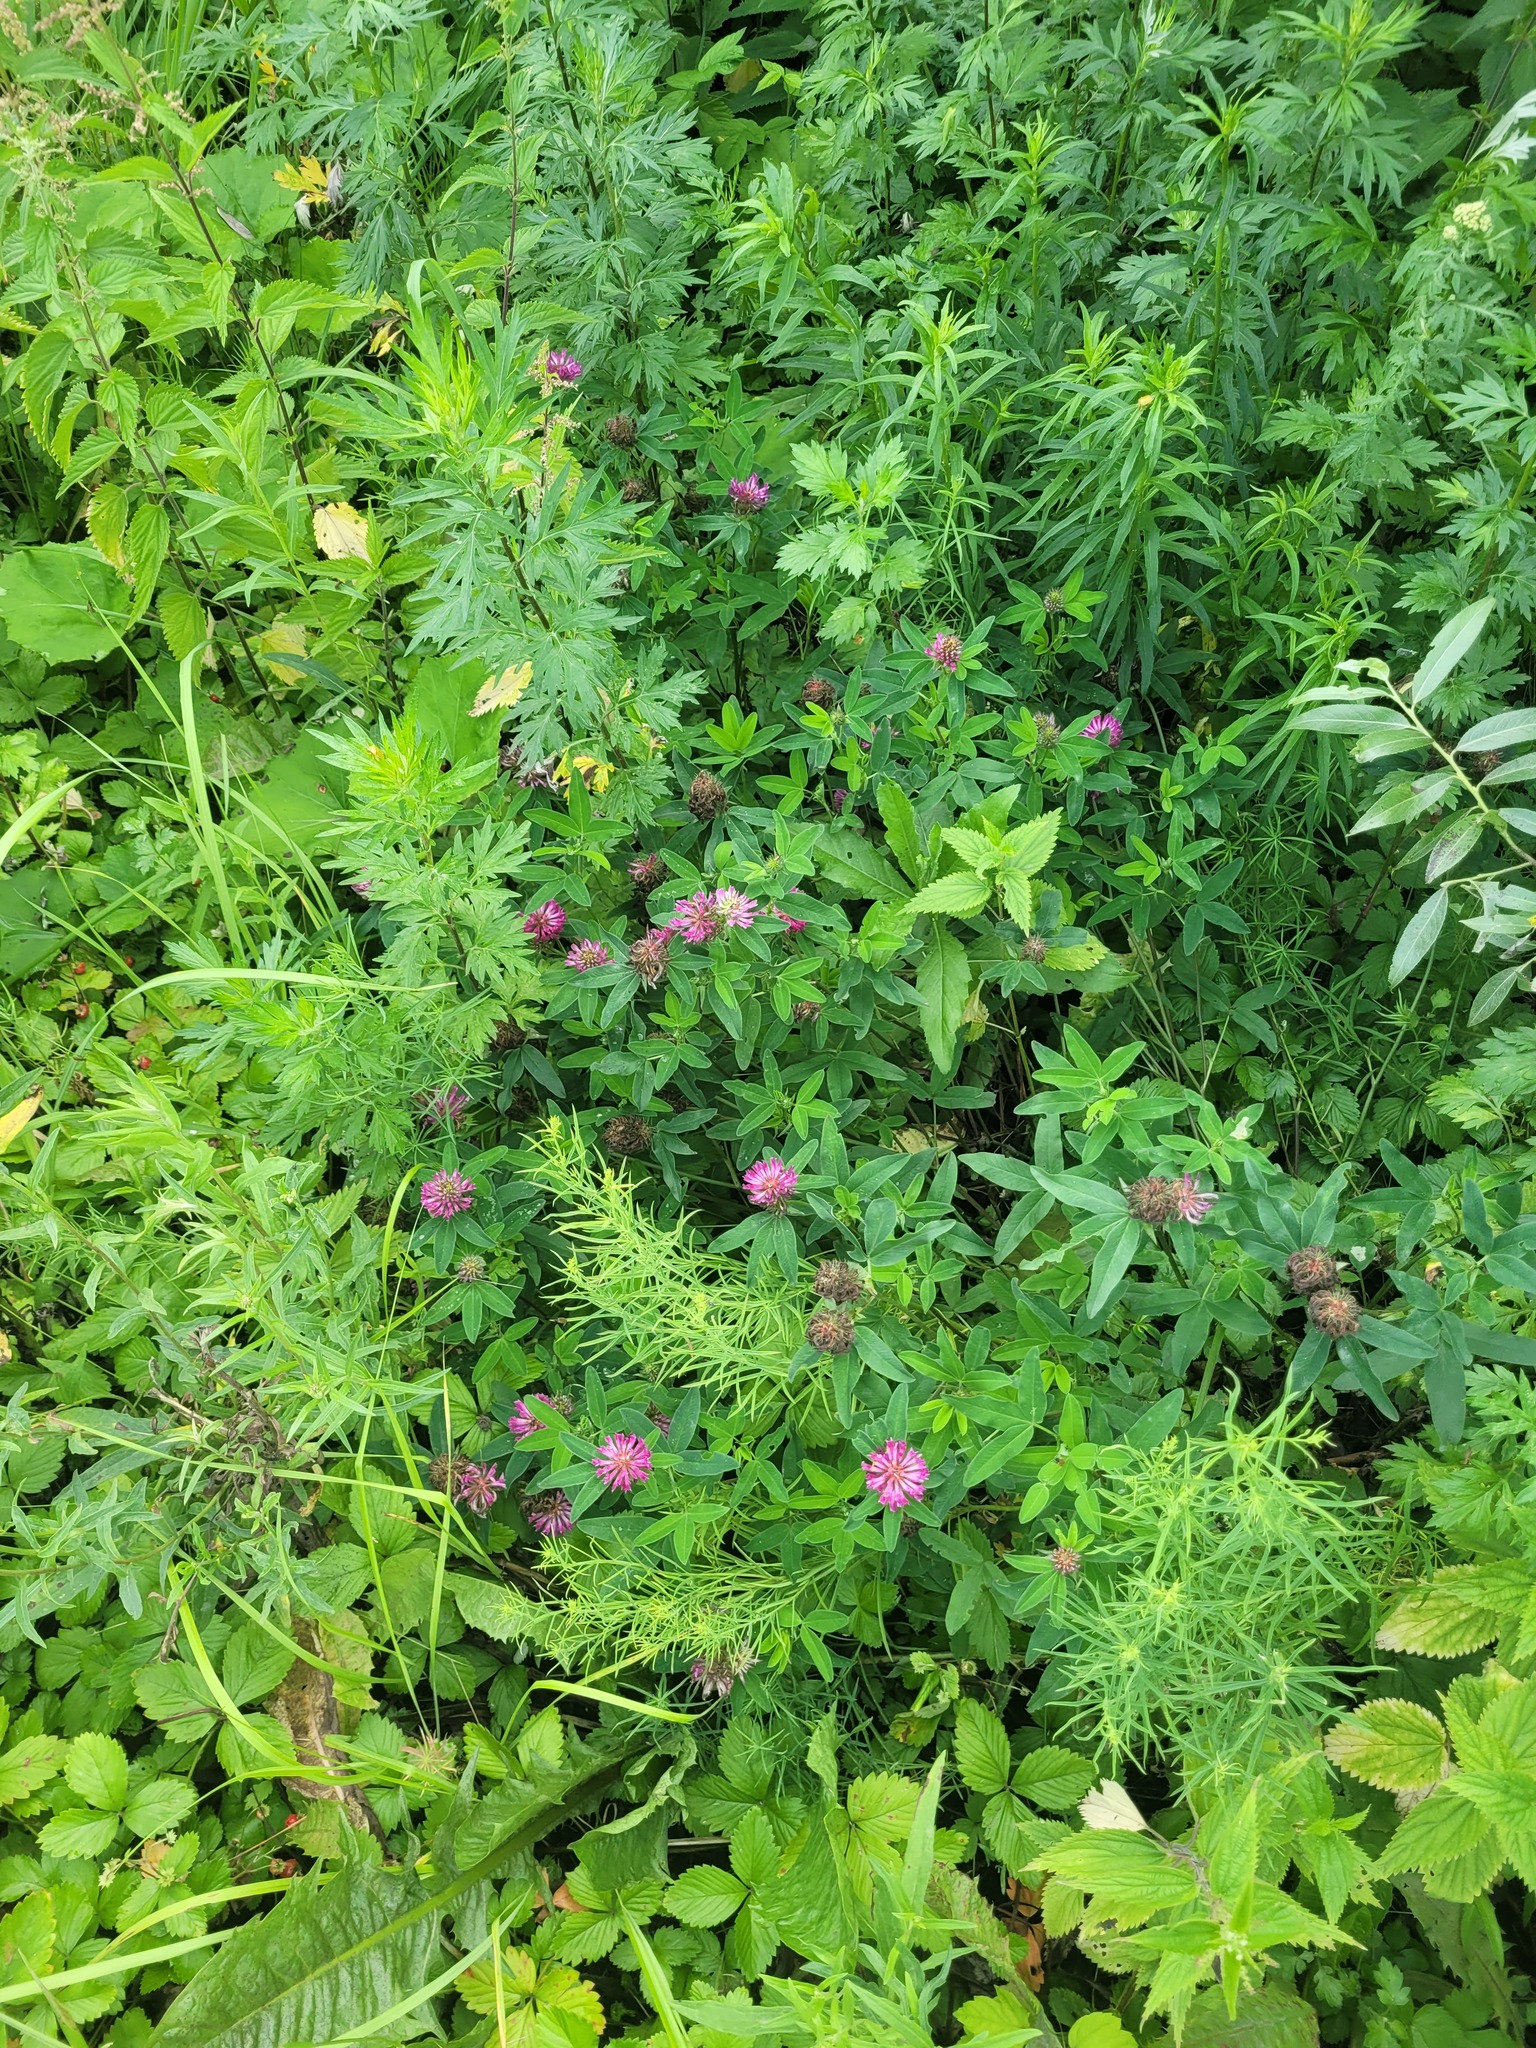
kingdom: Plantae
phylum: Tracheophyta
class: Magnoliopsida
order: Fabales
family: Fabaceae
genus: Trifolium
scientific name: Trifolium medium
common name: Zigzag clover
